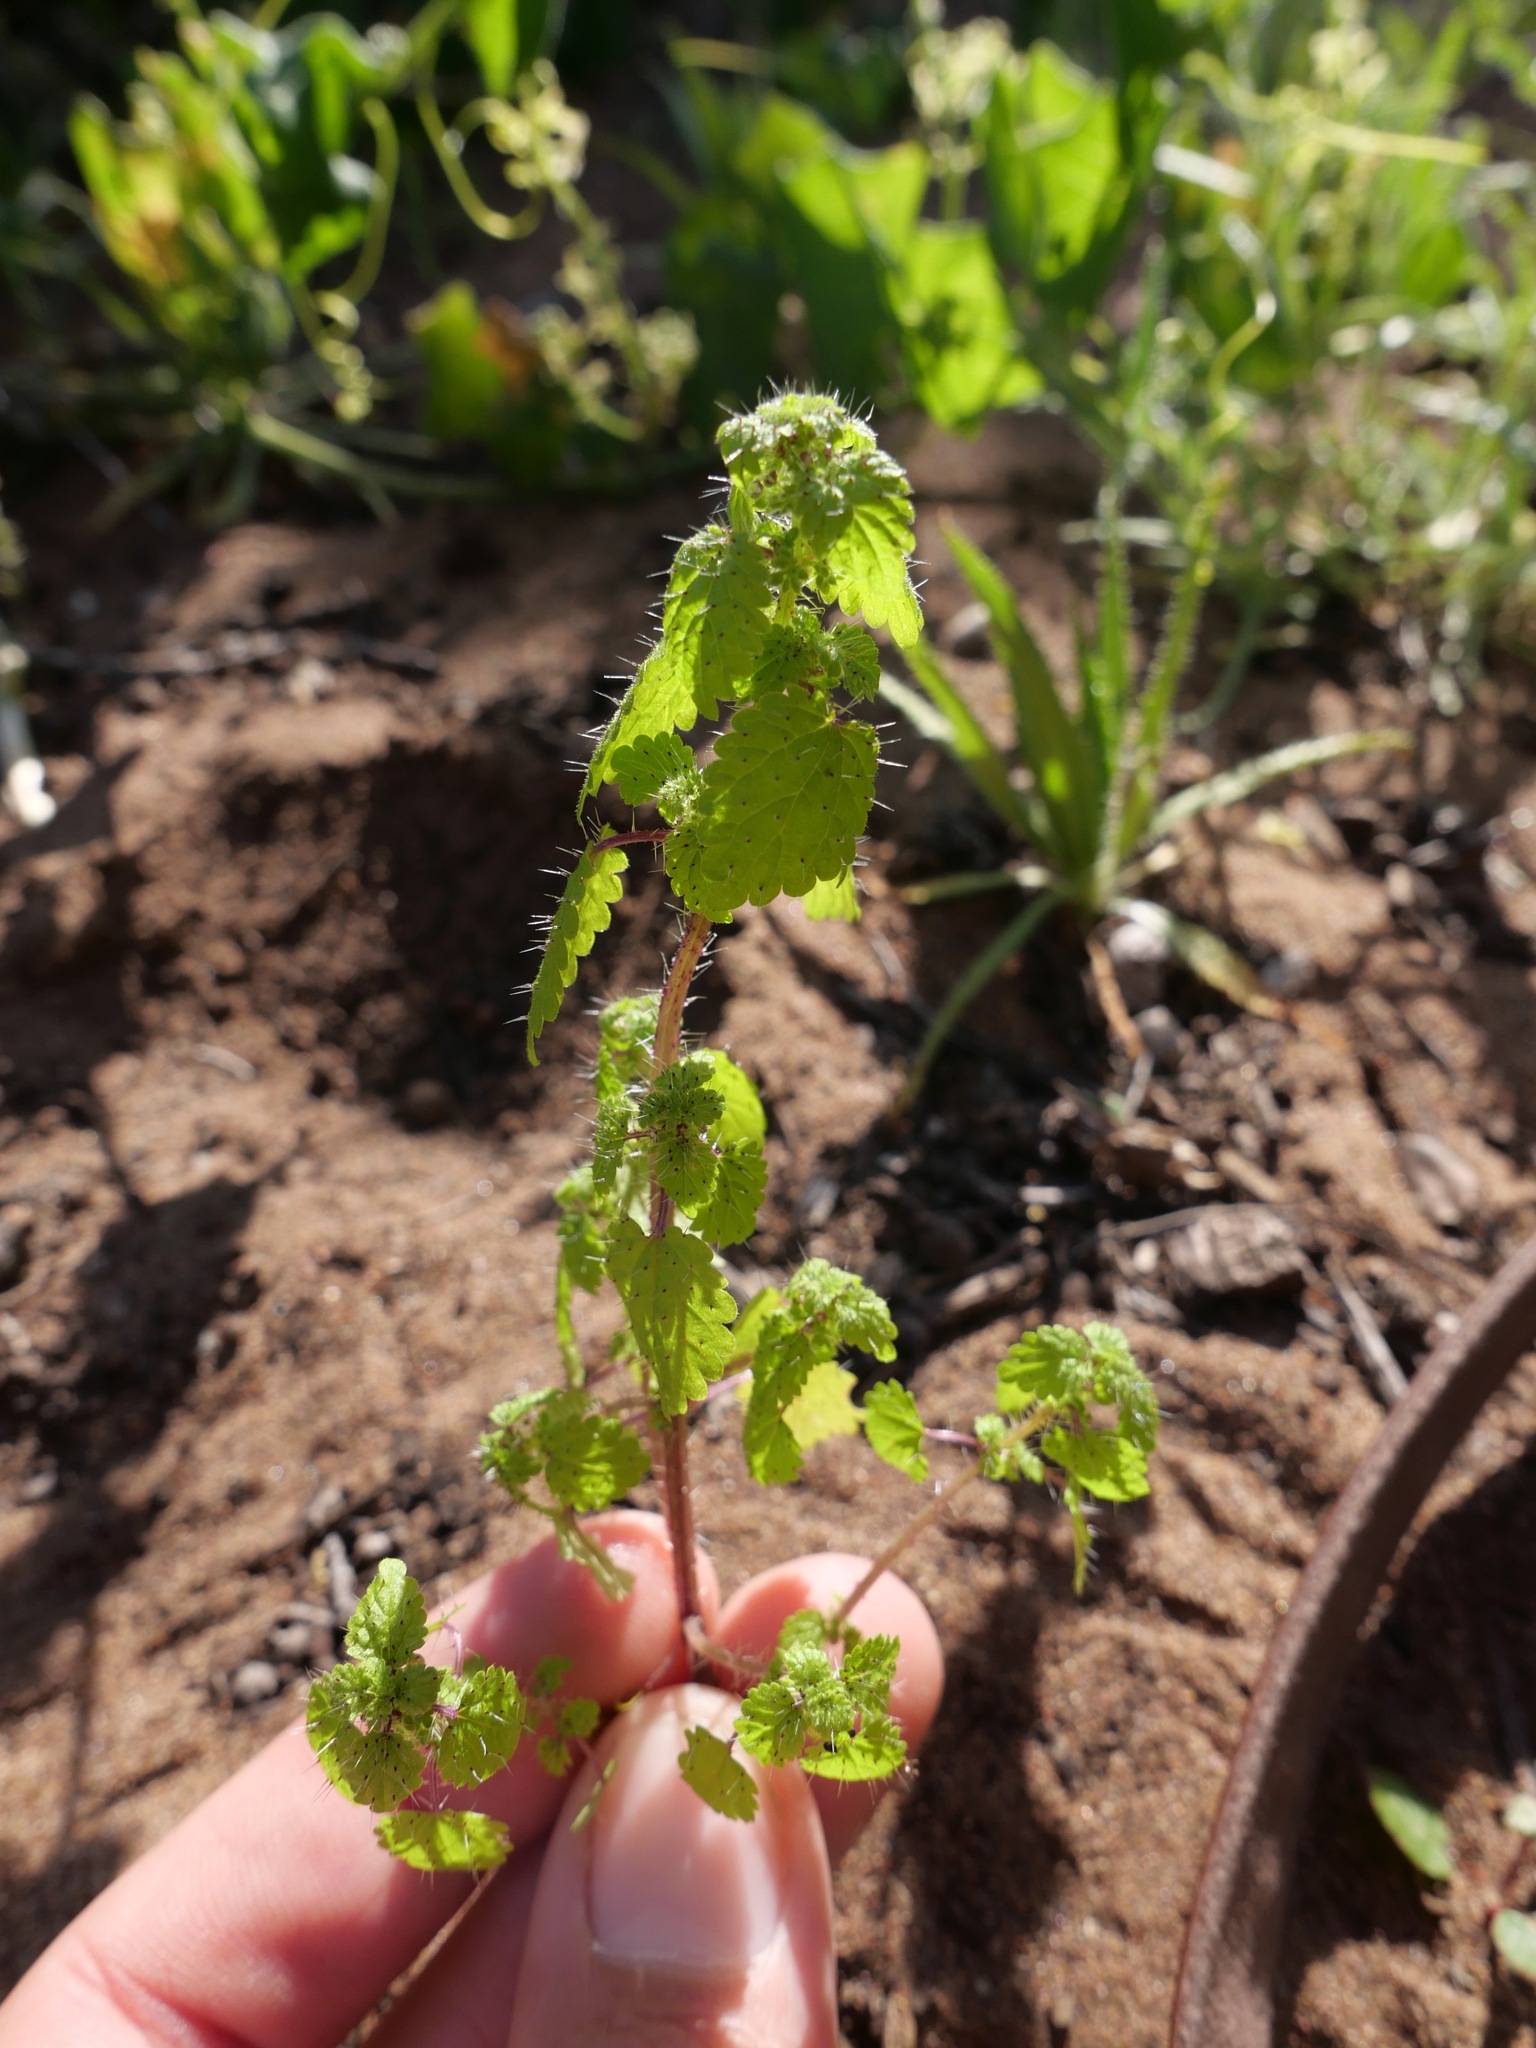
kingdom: Plantae
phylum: Tracheophyta
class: Magnoliopsida
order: Rosales
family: Urticaceae
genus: Hesperocnide
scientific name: Hesperocnide tenella
